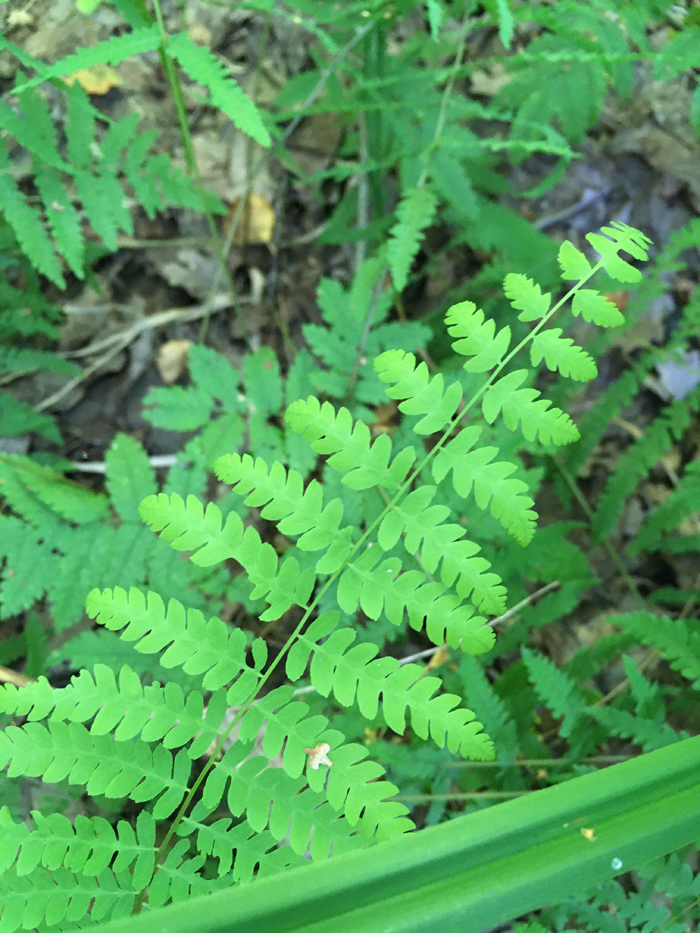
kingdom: Plantae
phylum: Tracheophyta
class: Polypodiopsida
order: Polypodiales
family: Thelypteridaceae
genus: Thelypteris
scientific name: Thelypteris palustris
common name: Marsh fern
